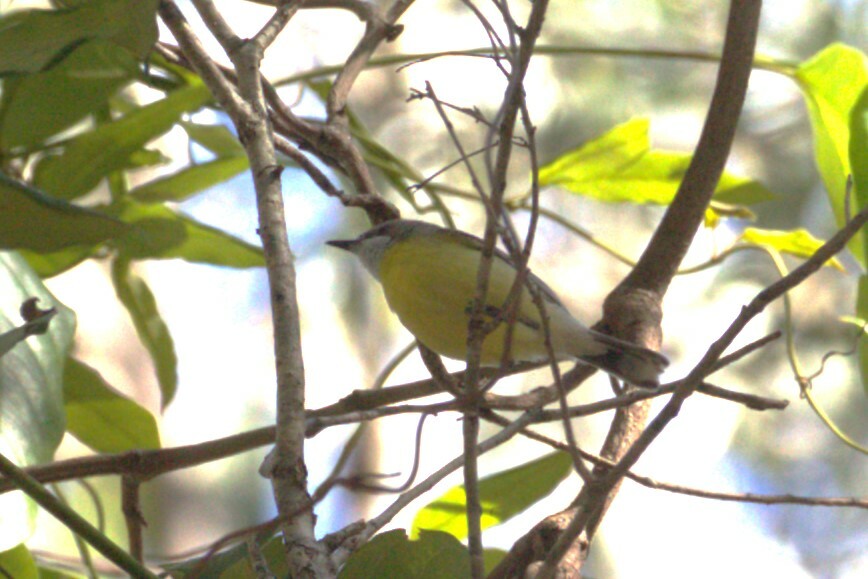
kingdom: Animalia
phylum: Chordata
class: Aves
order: Passeriformes
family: Acanthizidae
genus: Gerygone
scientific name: Gerygone olivacea
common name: White-throated gerygone
